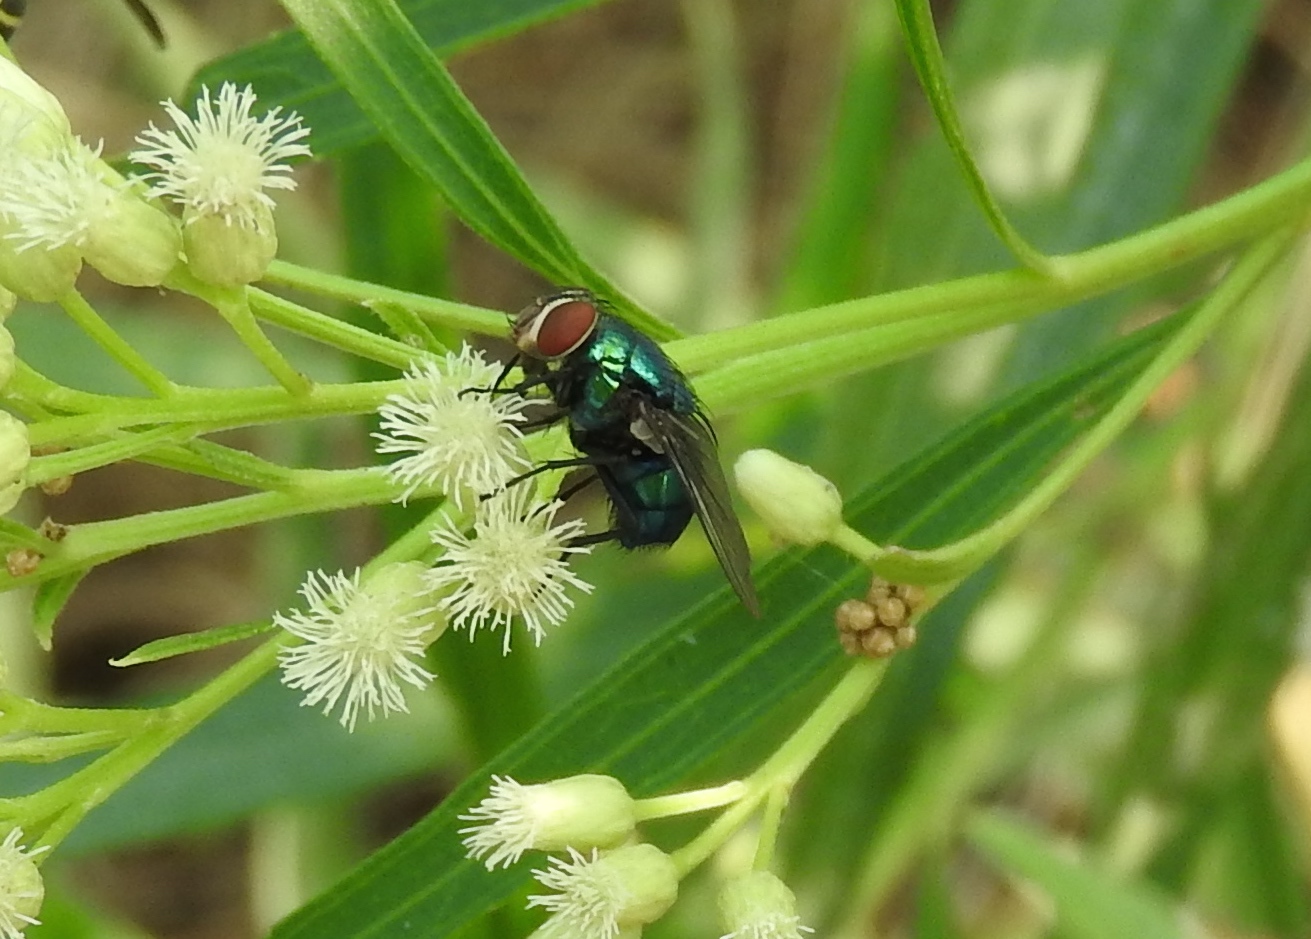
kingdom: Animalia
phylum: Arthropoda
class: Insecta
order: Diptera
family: Calliphoridae
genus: Lucilia
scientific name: Lucilia
